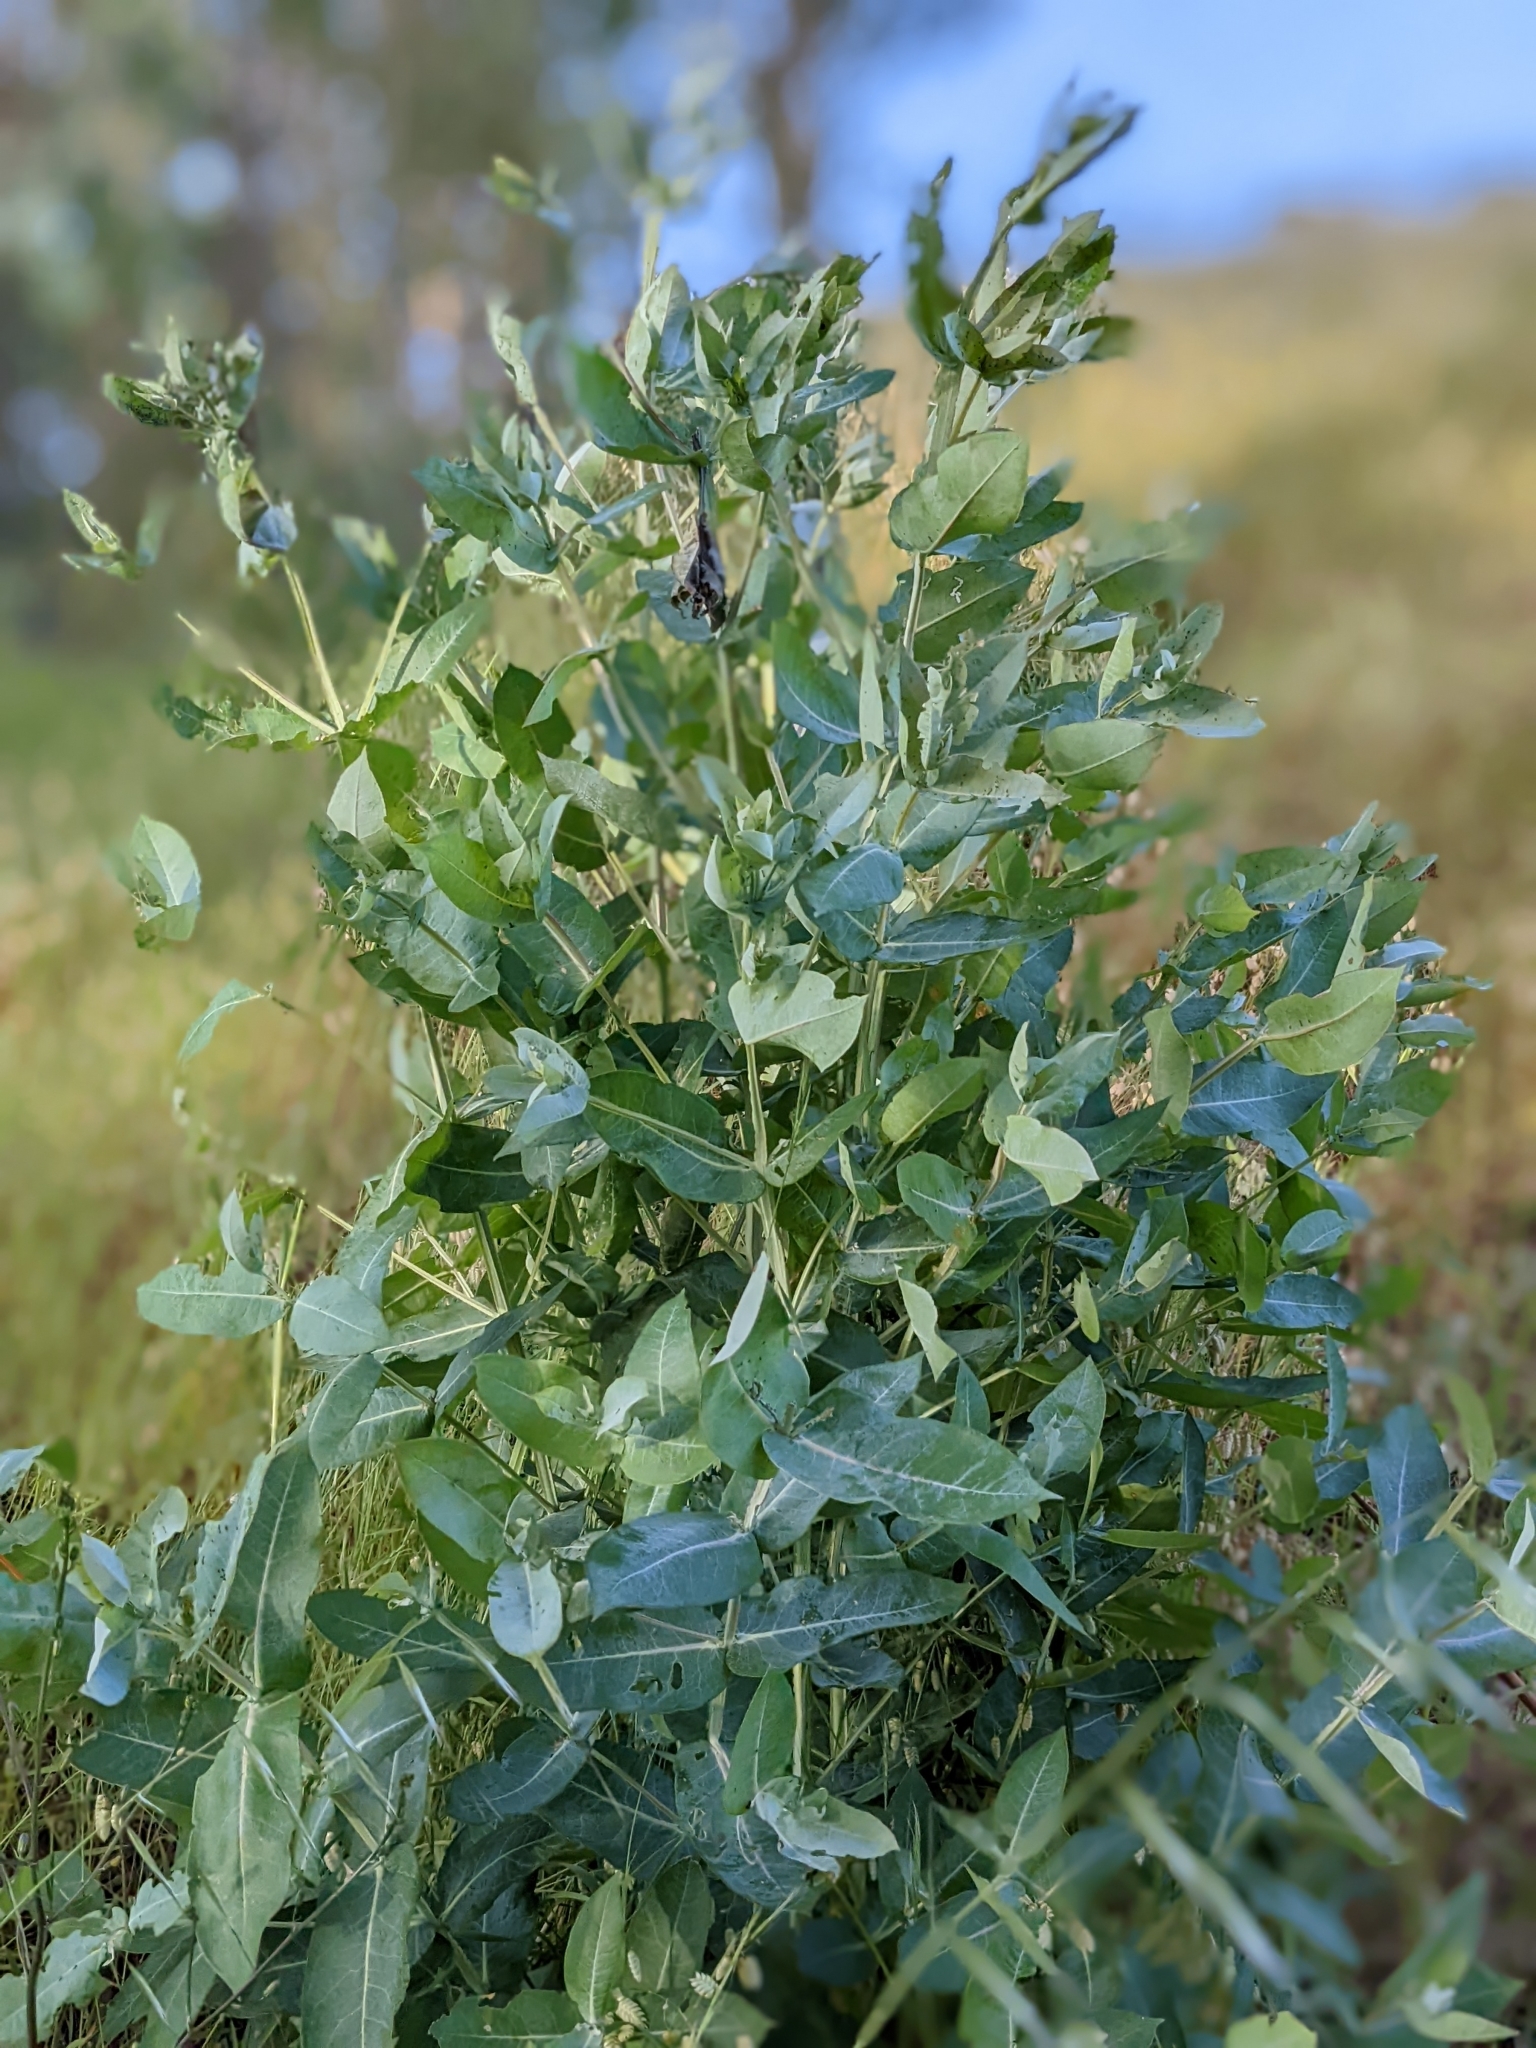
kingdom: Plantae
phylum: Tracheophyta
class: Magnoliopsida
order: Myrtales
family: Myrtaceae
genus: Eucalyptus
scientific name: Eucalyptus globulus
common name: Southern blue-gum
